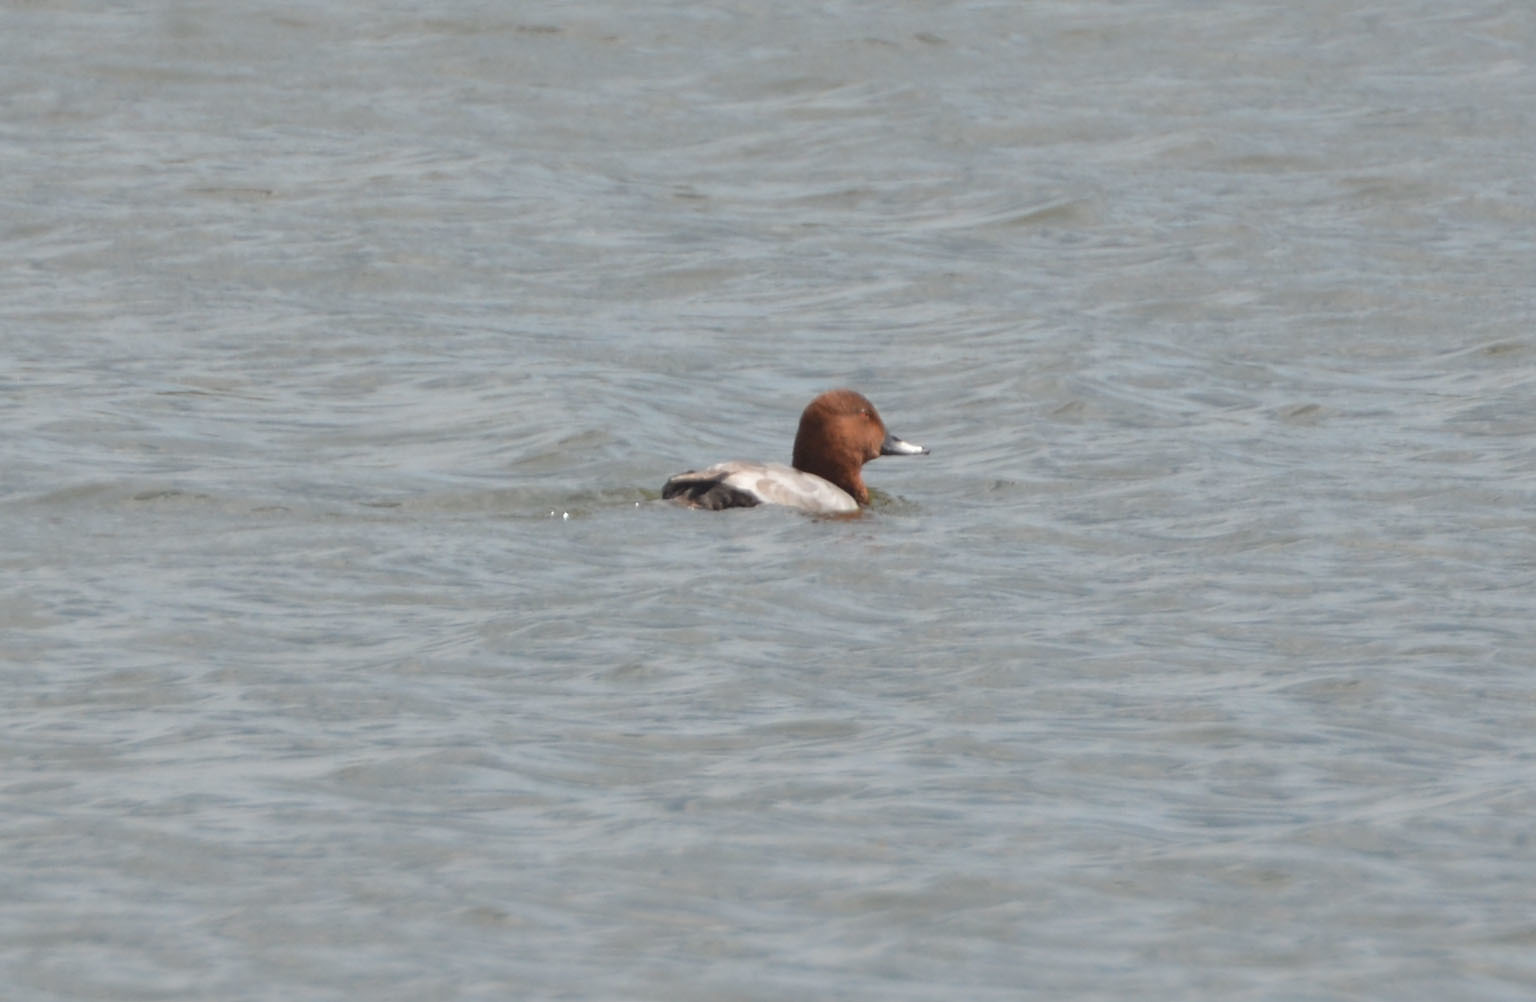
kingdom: Animalia
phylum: Chordata
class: Aves
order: Anseriformes
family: Anatidae
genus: Aythya
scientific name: Aythya ferina
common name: Common pochard
